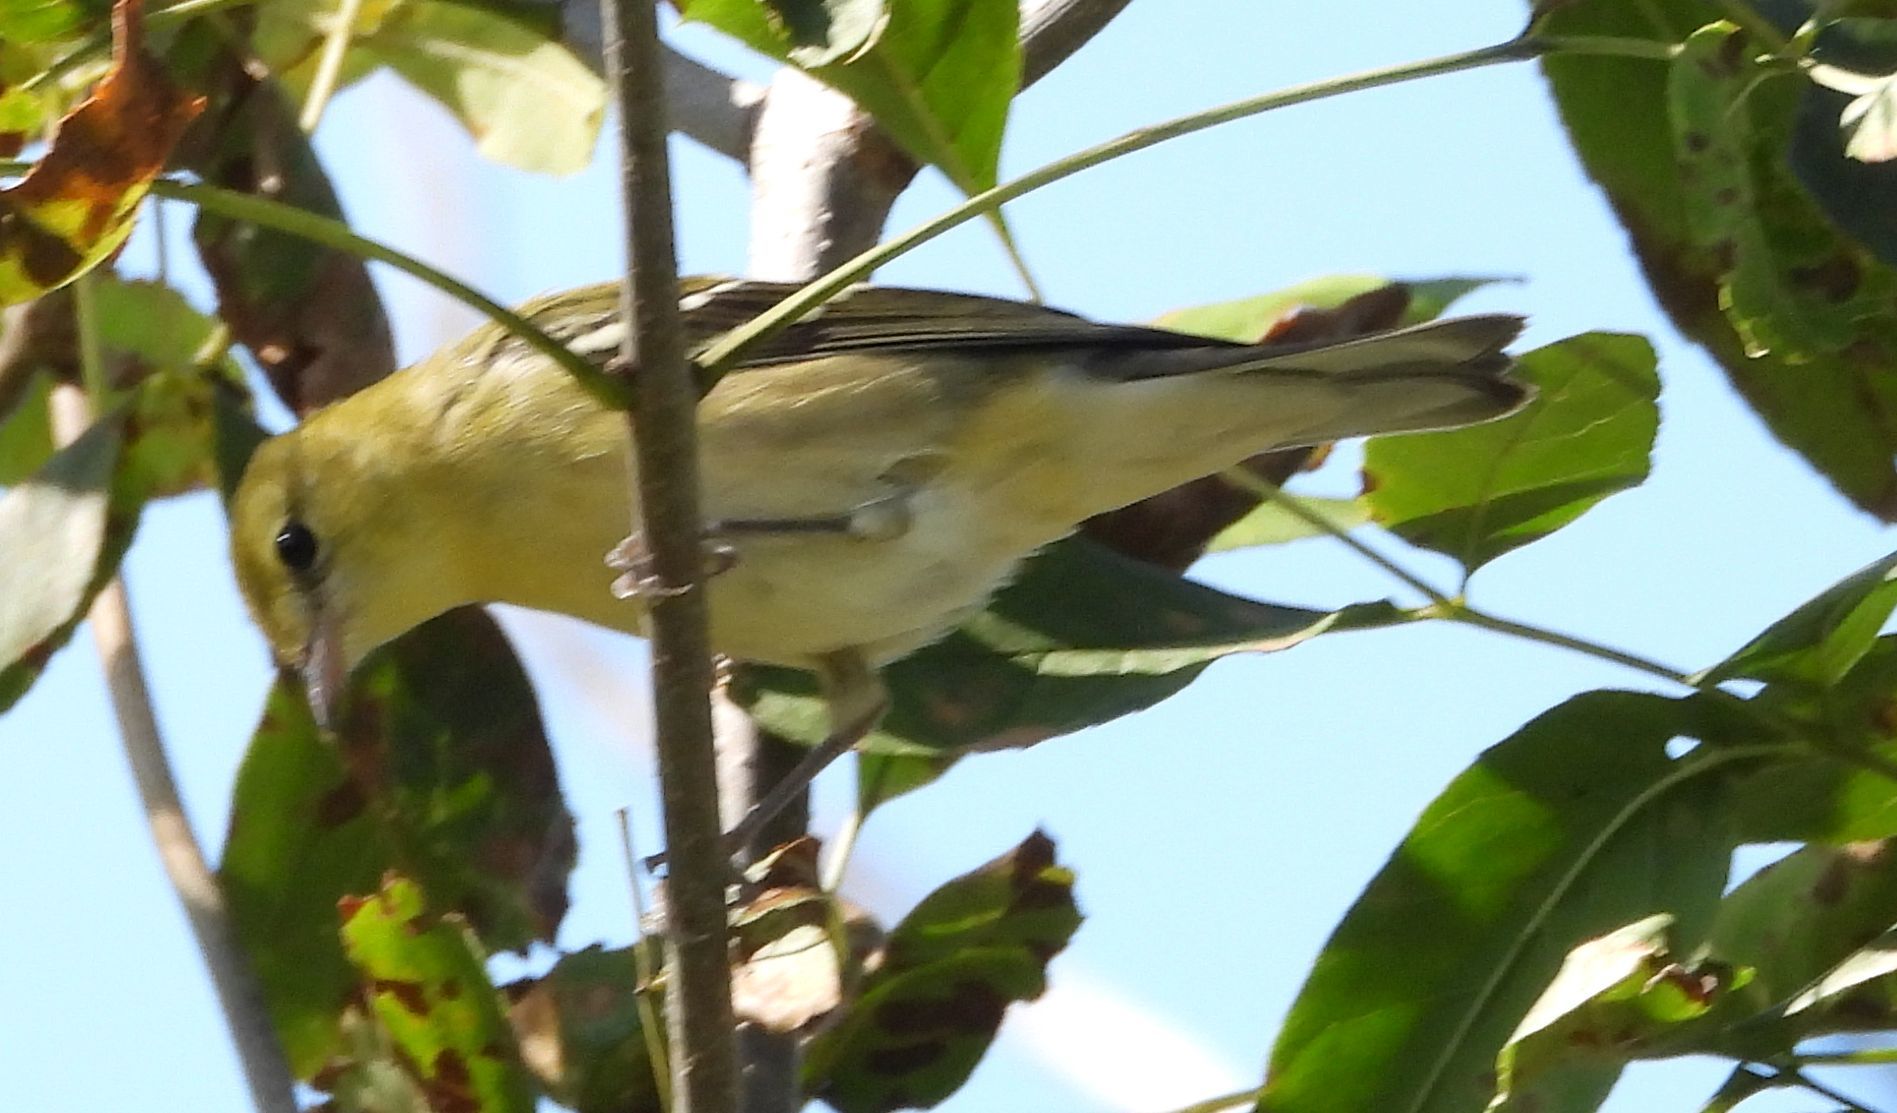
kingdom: Animalia
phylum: Chordata
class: Aves
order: Passeriformes
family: Parulidae
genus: Setophaga
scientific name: Setophaga castanea
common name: Bay-breasted warbler
